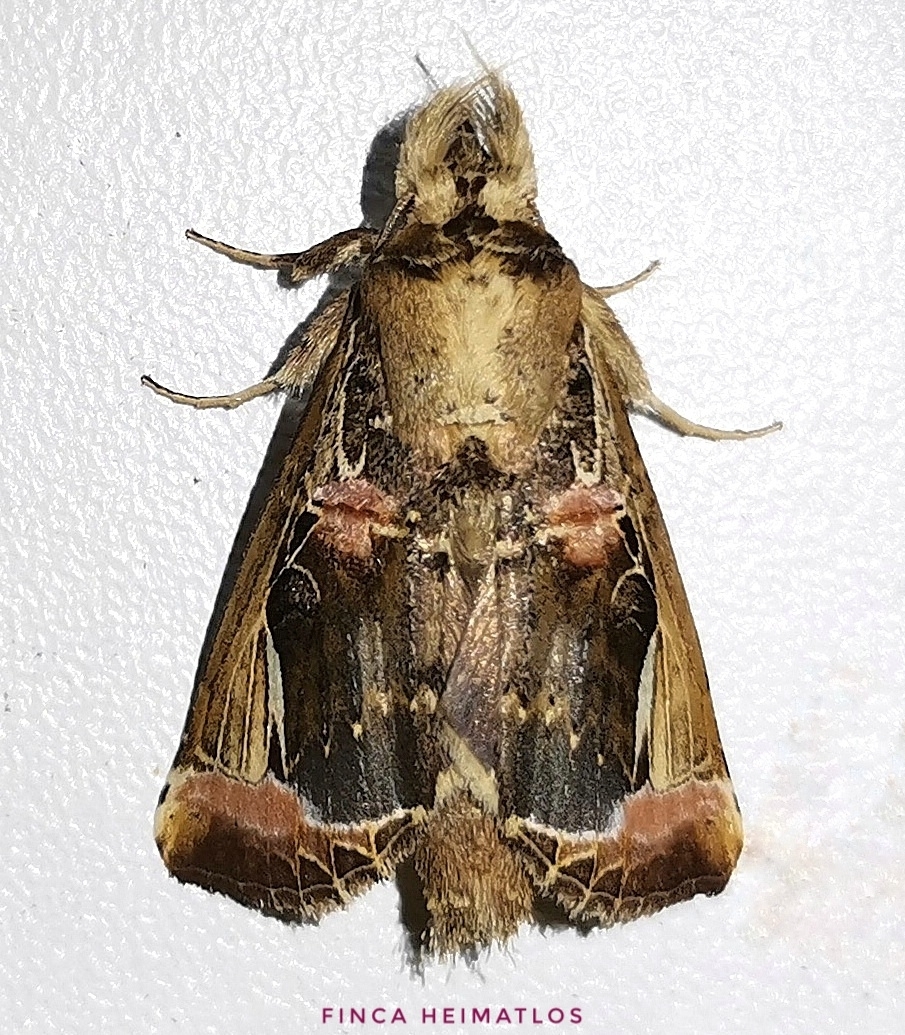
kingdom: Animalia
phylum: Arthropoda
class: Insecta
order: Lepidoptera
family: Notodontidae
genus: Calledema
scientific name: Calledema plusioides
